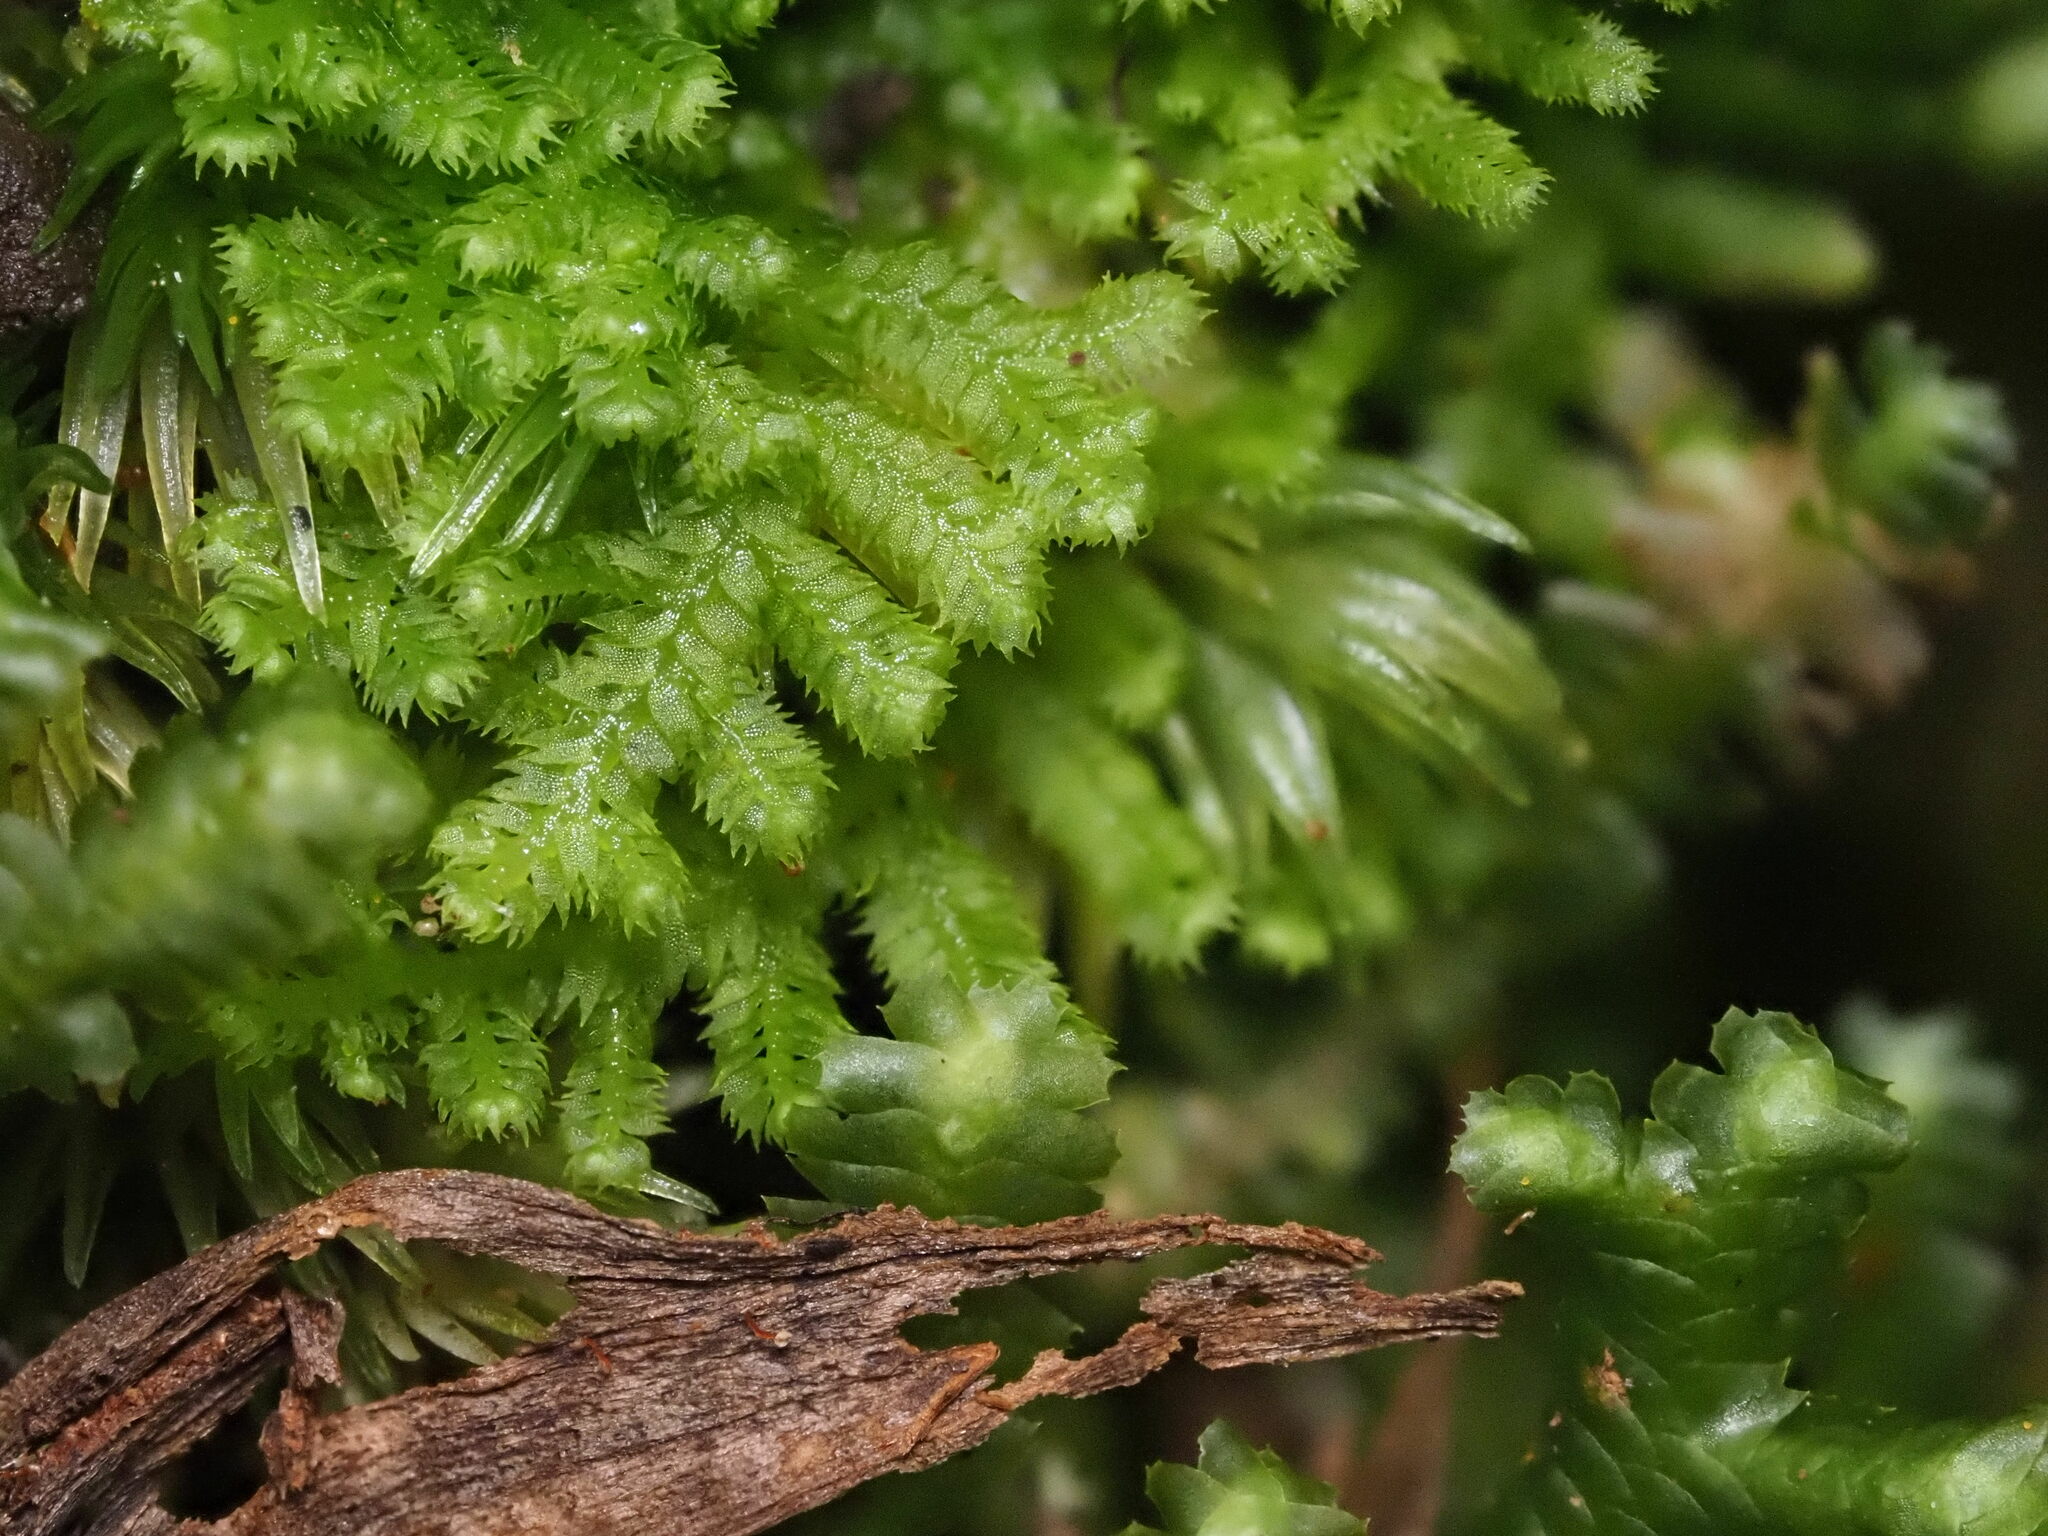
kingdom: Plantae
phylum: Marchantiophyta
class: Jungermanniopsida
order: Jungermanniales
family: Lepidoziaceae
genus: Lepidozia
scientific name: Lepidozia australis
